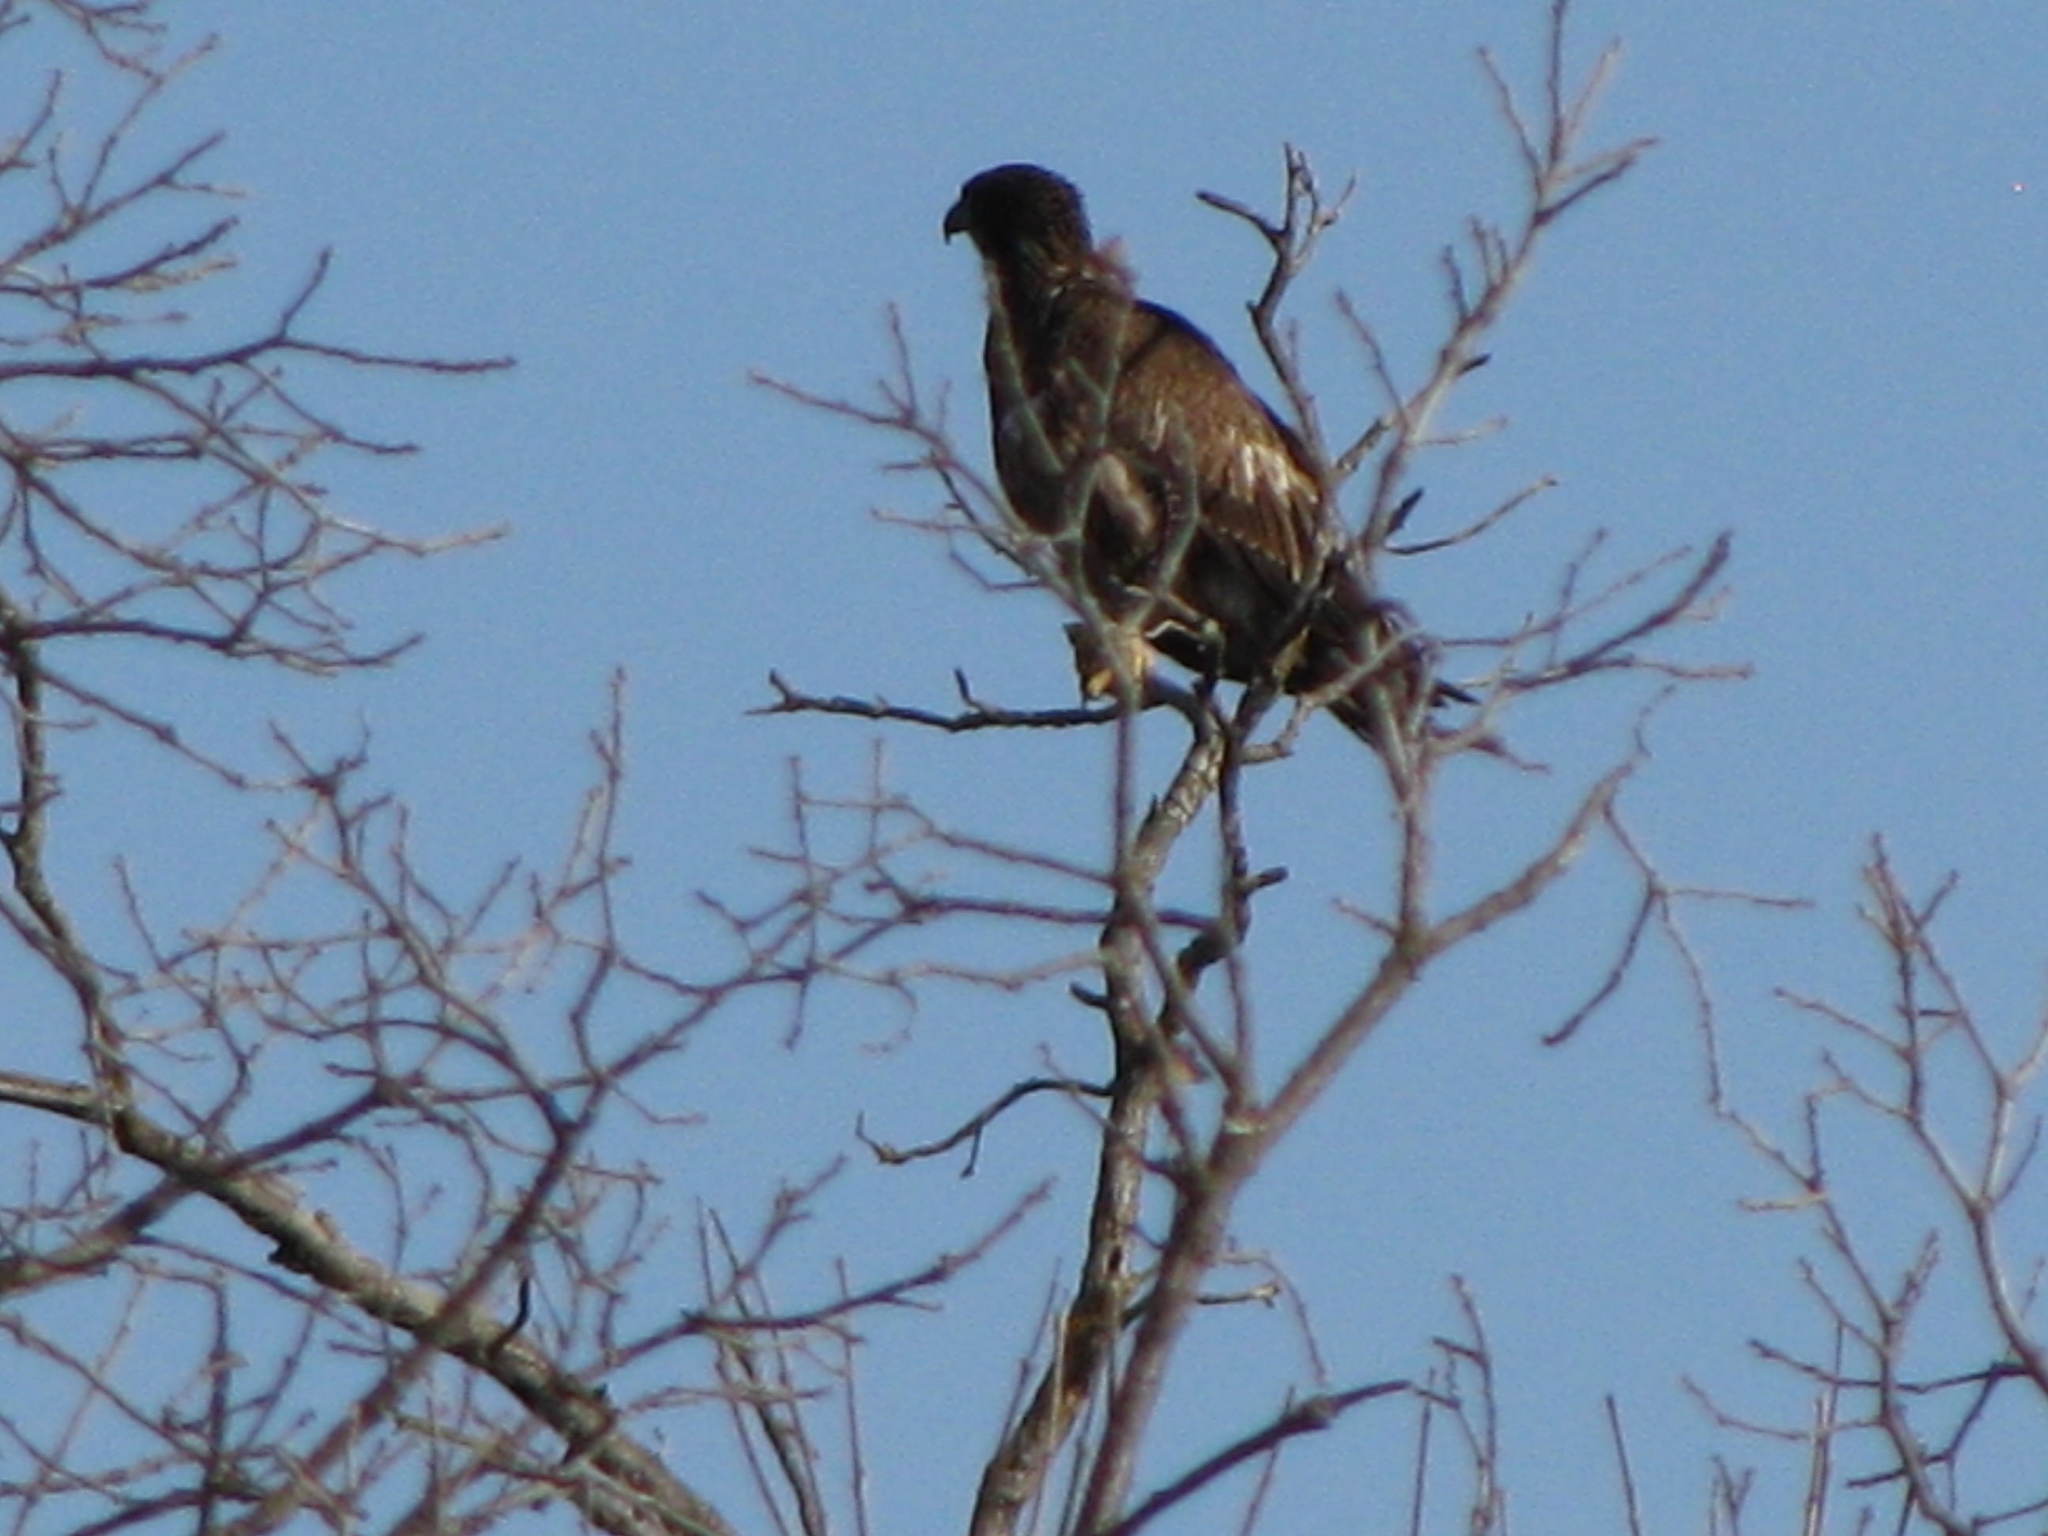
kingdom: Animalia
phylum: Chordata
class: Aves
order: Accipitriformes
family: Accipitridae
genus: Haliaeetus
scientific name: Haliaeetus leucocephalus
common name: Bald eagle
